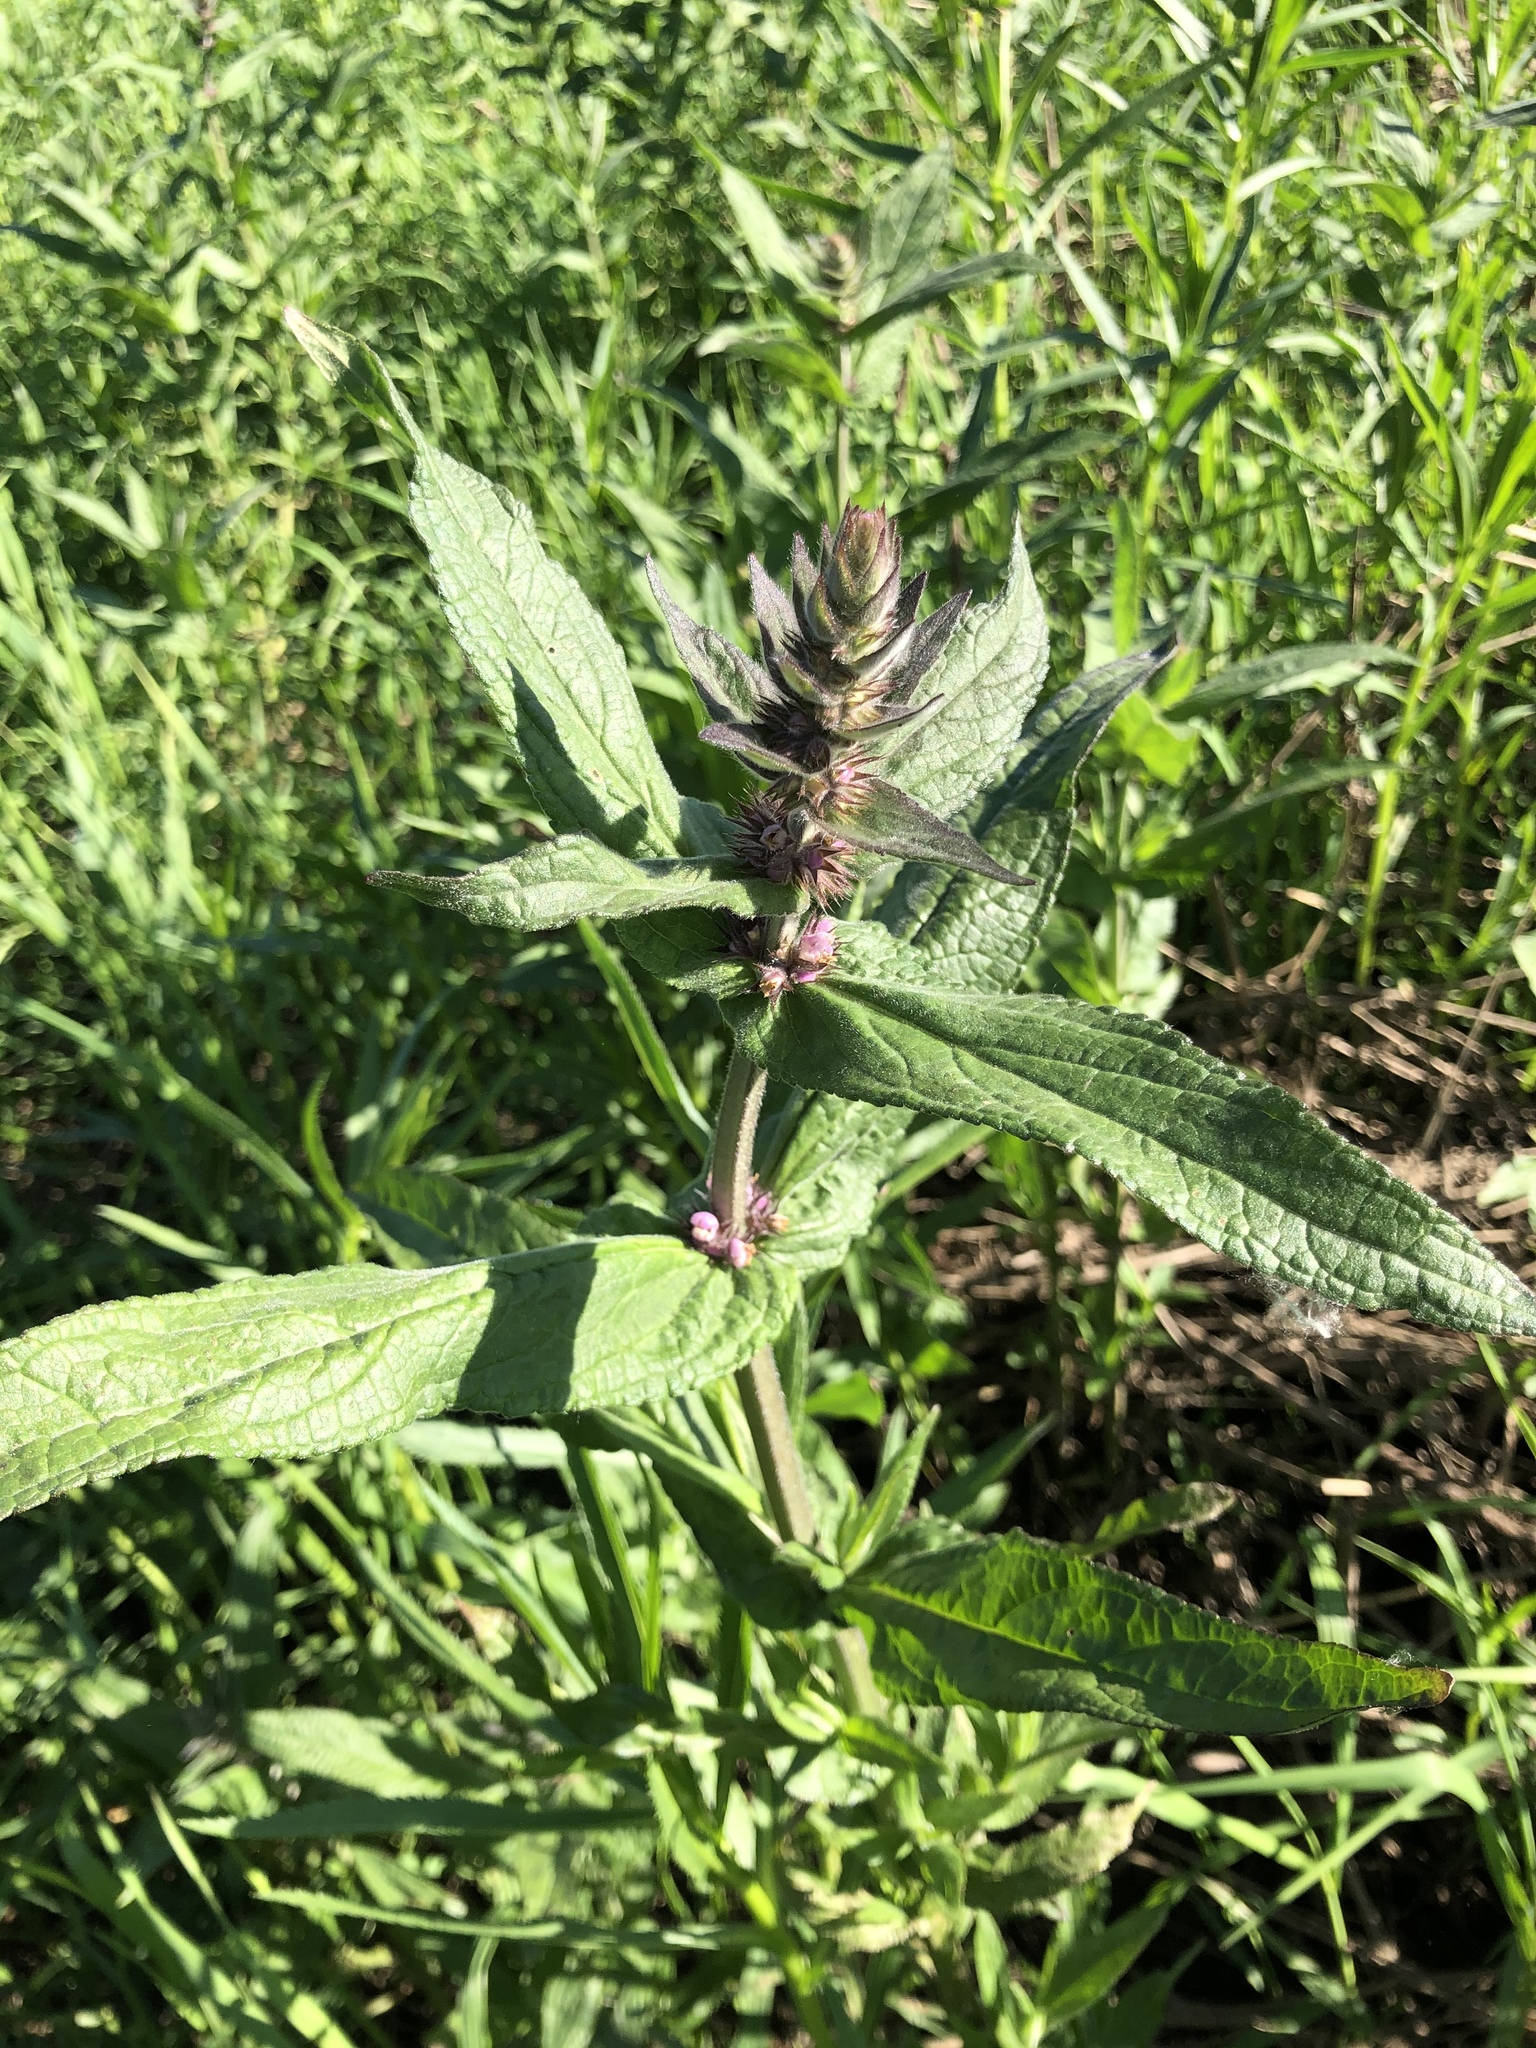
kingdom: Plantae
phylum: Tracheophyta
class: Magnoliopsida
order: Lamiales
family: Lamiaceae
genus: Stachys
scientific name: Stachys palustris
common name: Marsh woundwort
